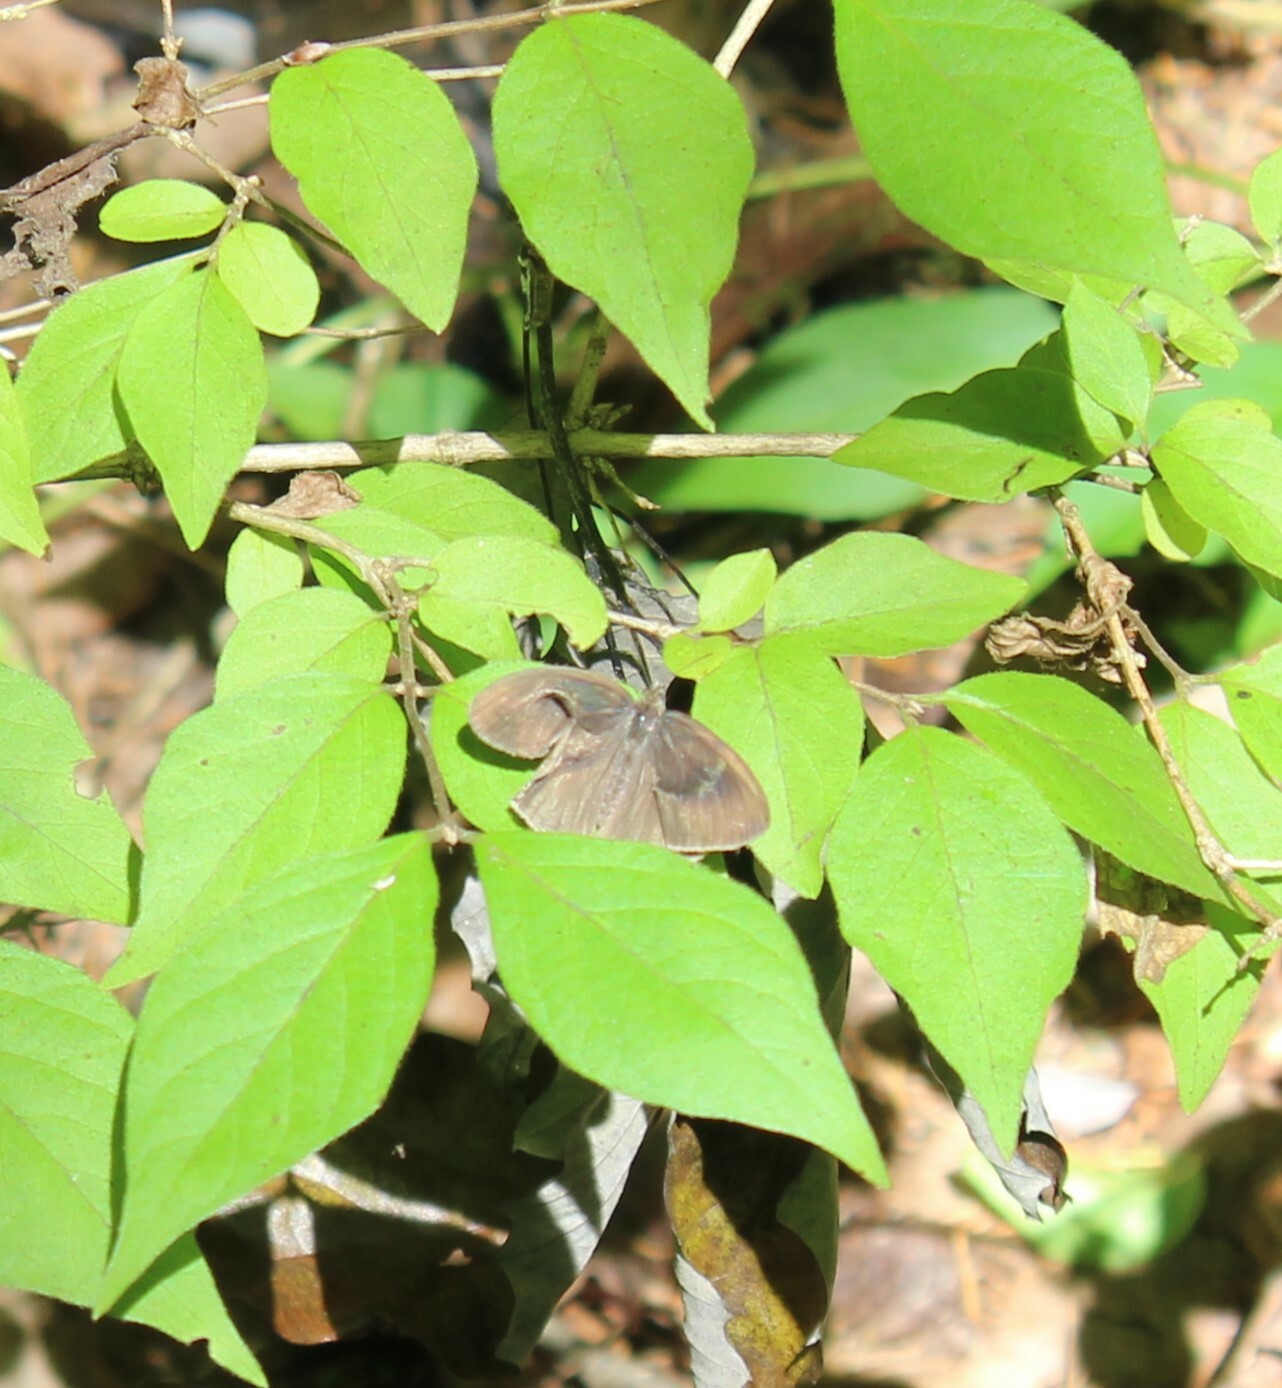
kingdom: Animalia
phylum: Arthropoda
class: Insecta
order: Lepidoptera
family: Nymphalidae
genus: Hermeuptychia
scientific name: Hermeuptychia hermes
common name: Hermes satyr
